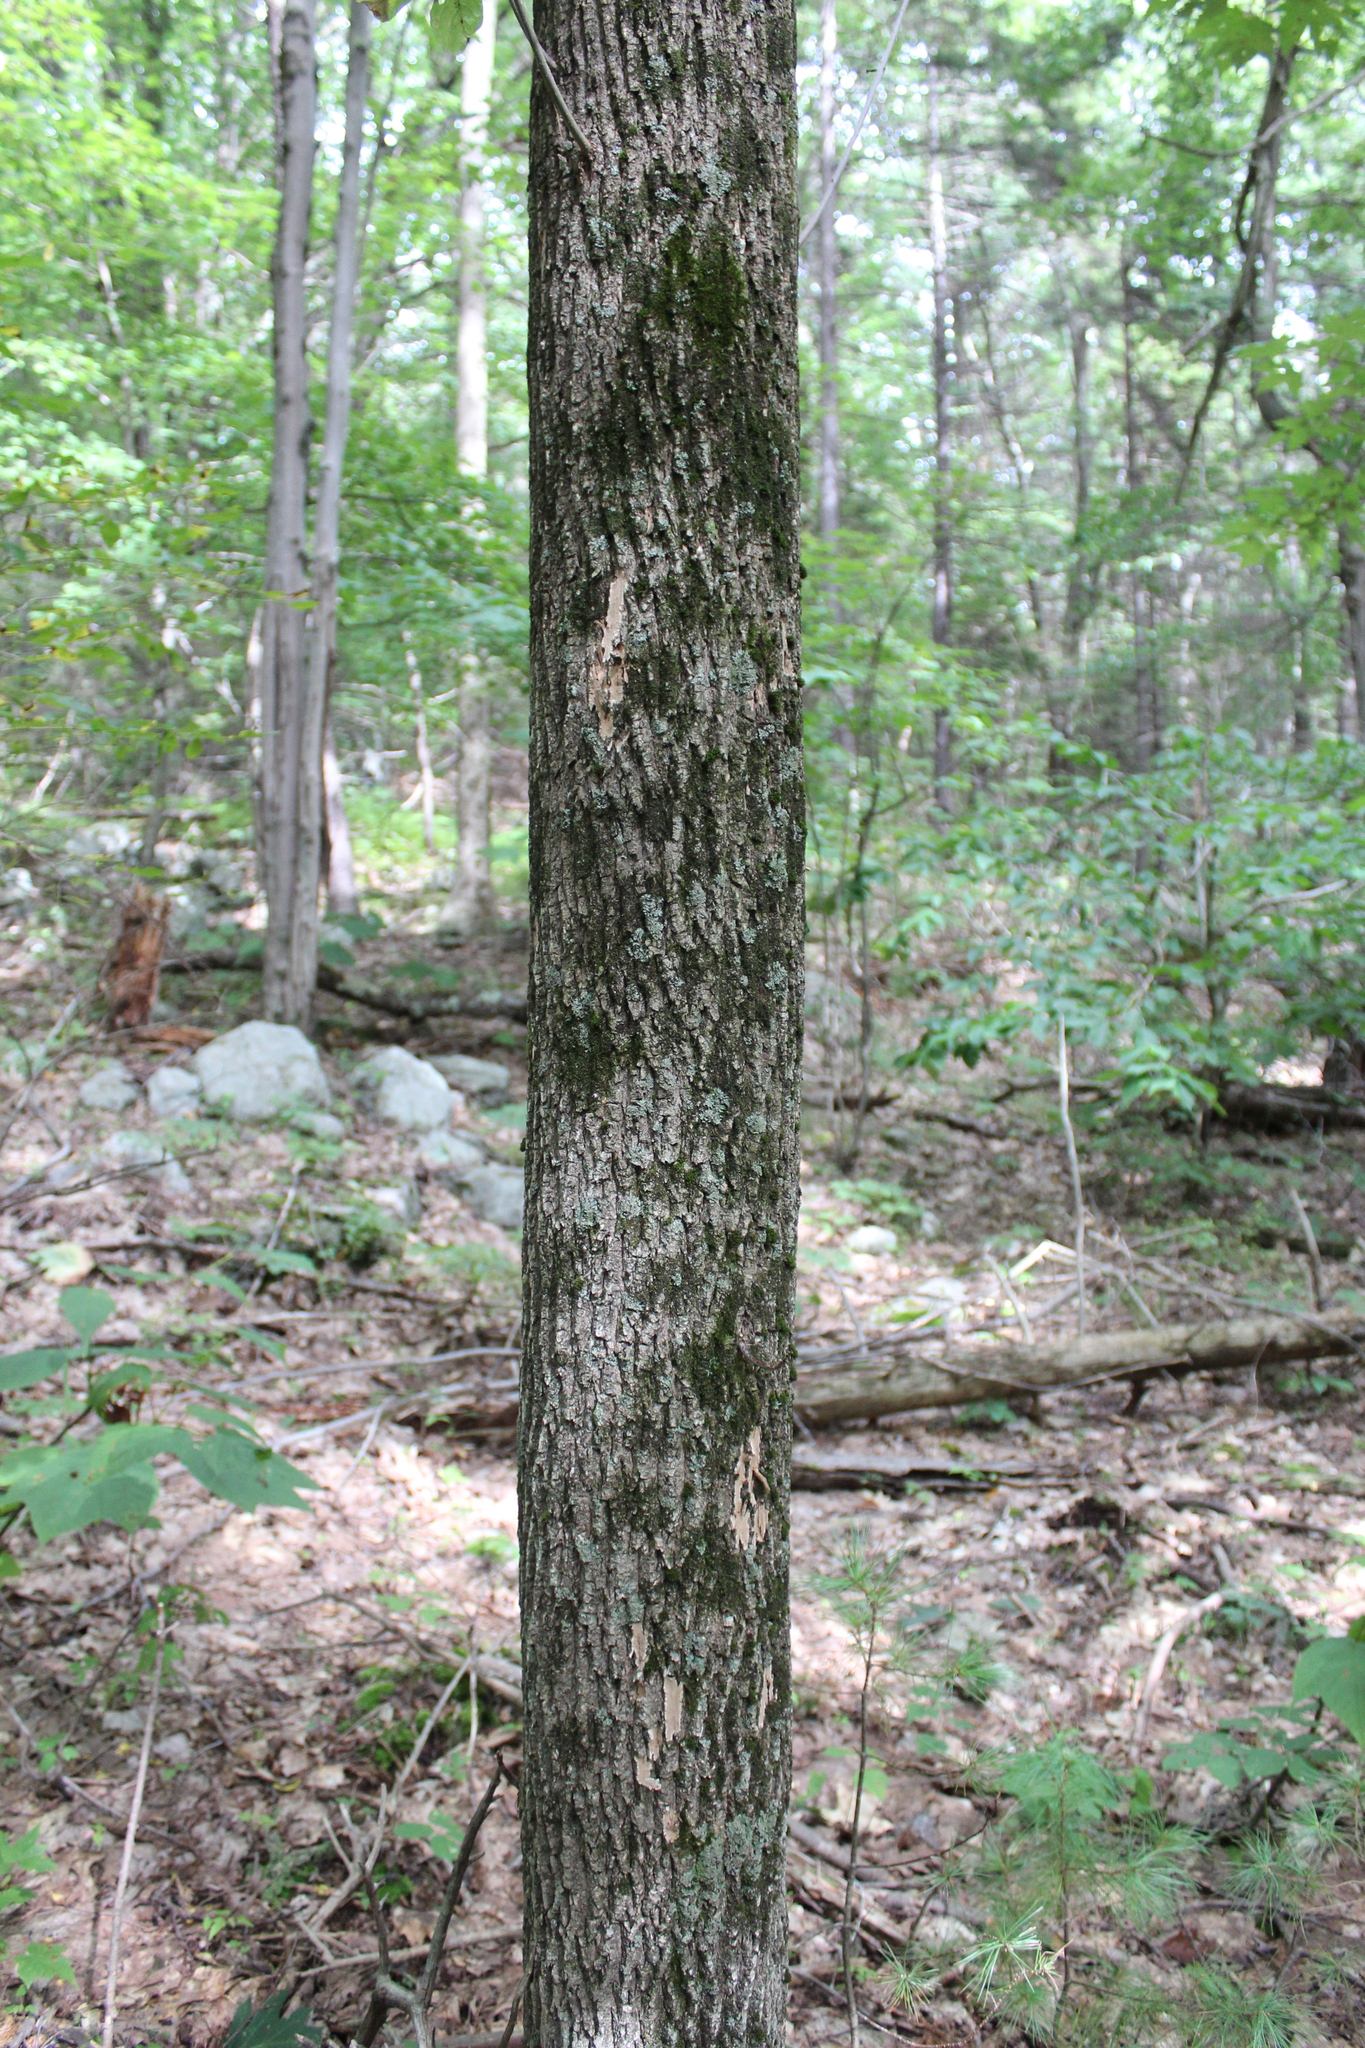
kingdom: Plantae
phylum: Tracheophyta
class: Magnoliopsida
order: Lamiales
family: Oleaceae
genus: Fraxinus
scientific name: Fraxinus americana
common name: White ash
